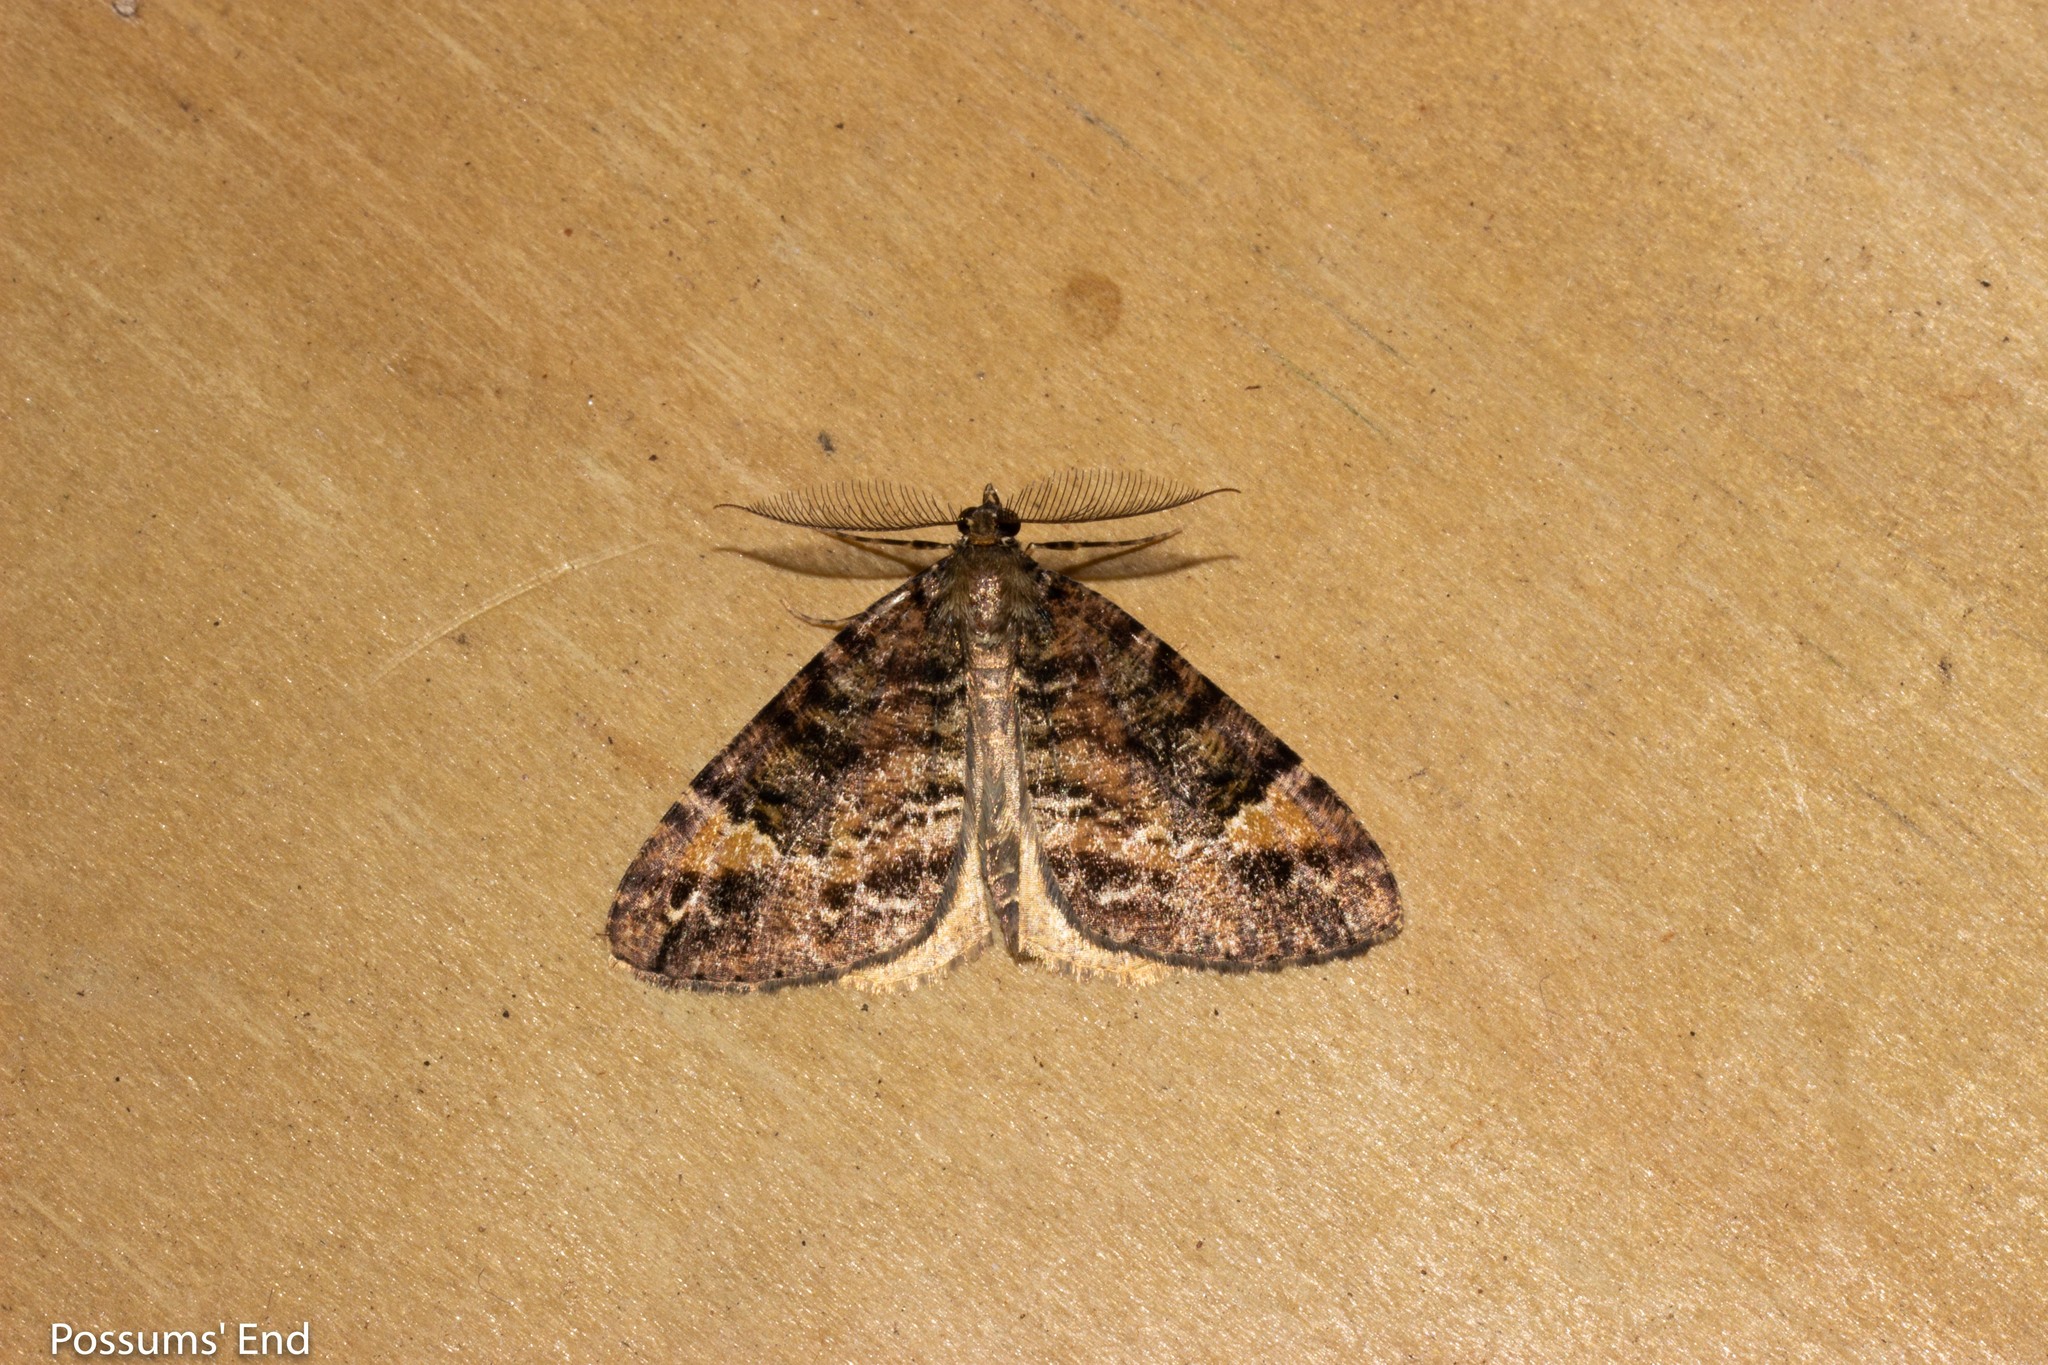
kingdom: Animalia
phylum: Arthropoda
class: Insecta
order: Lepidoptera
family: Geometridae
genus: Pseudocoremia
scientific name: Pseudocoremia productata
